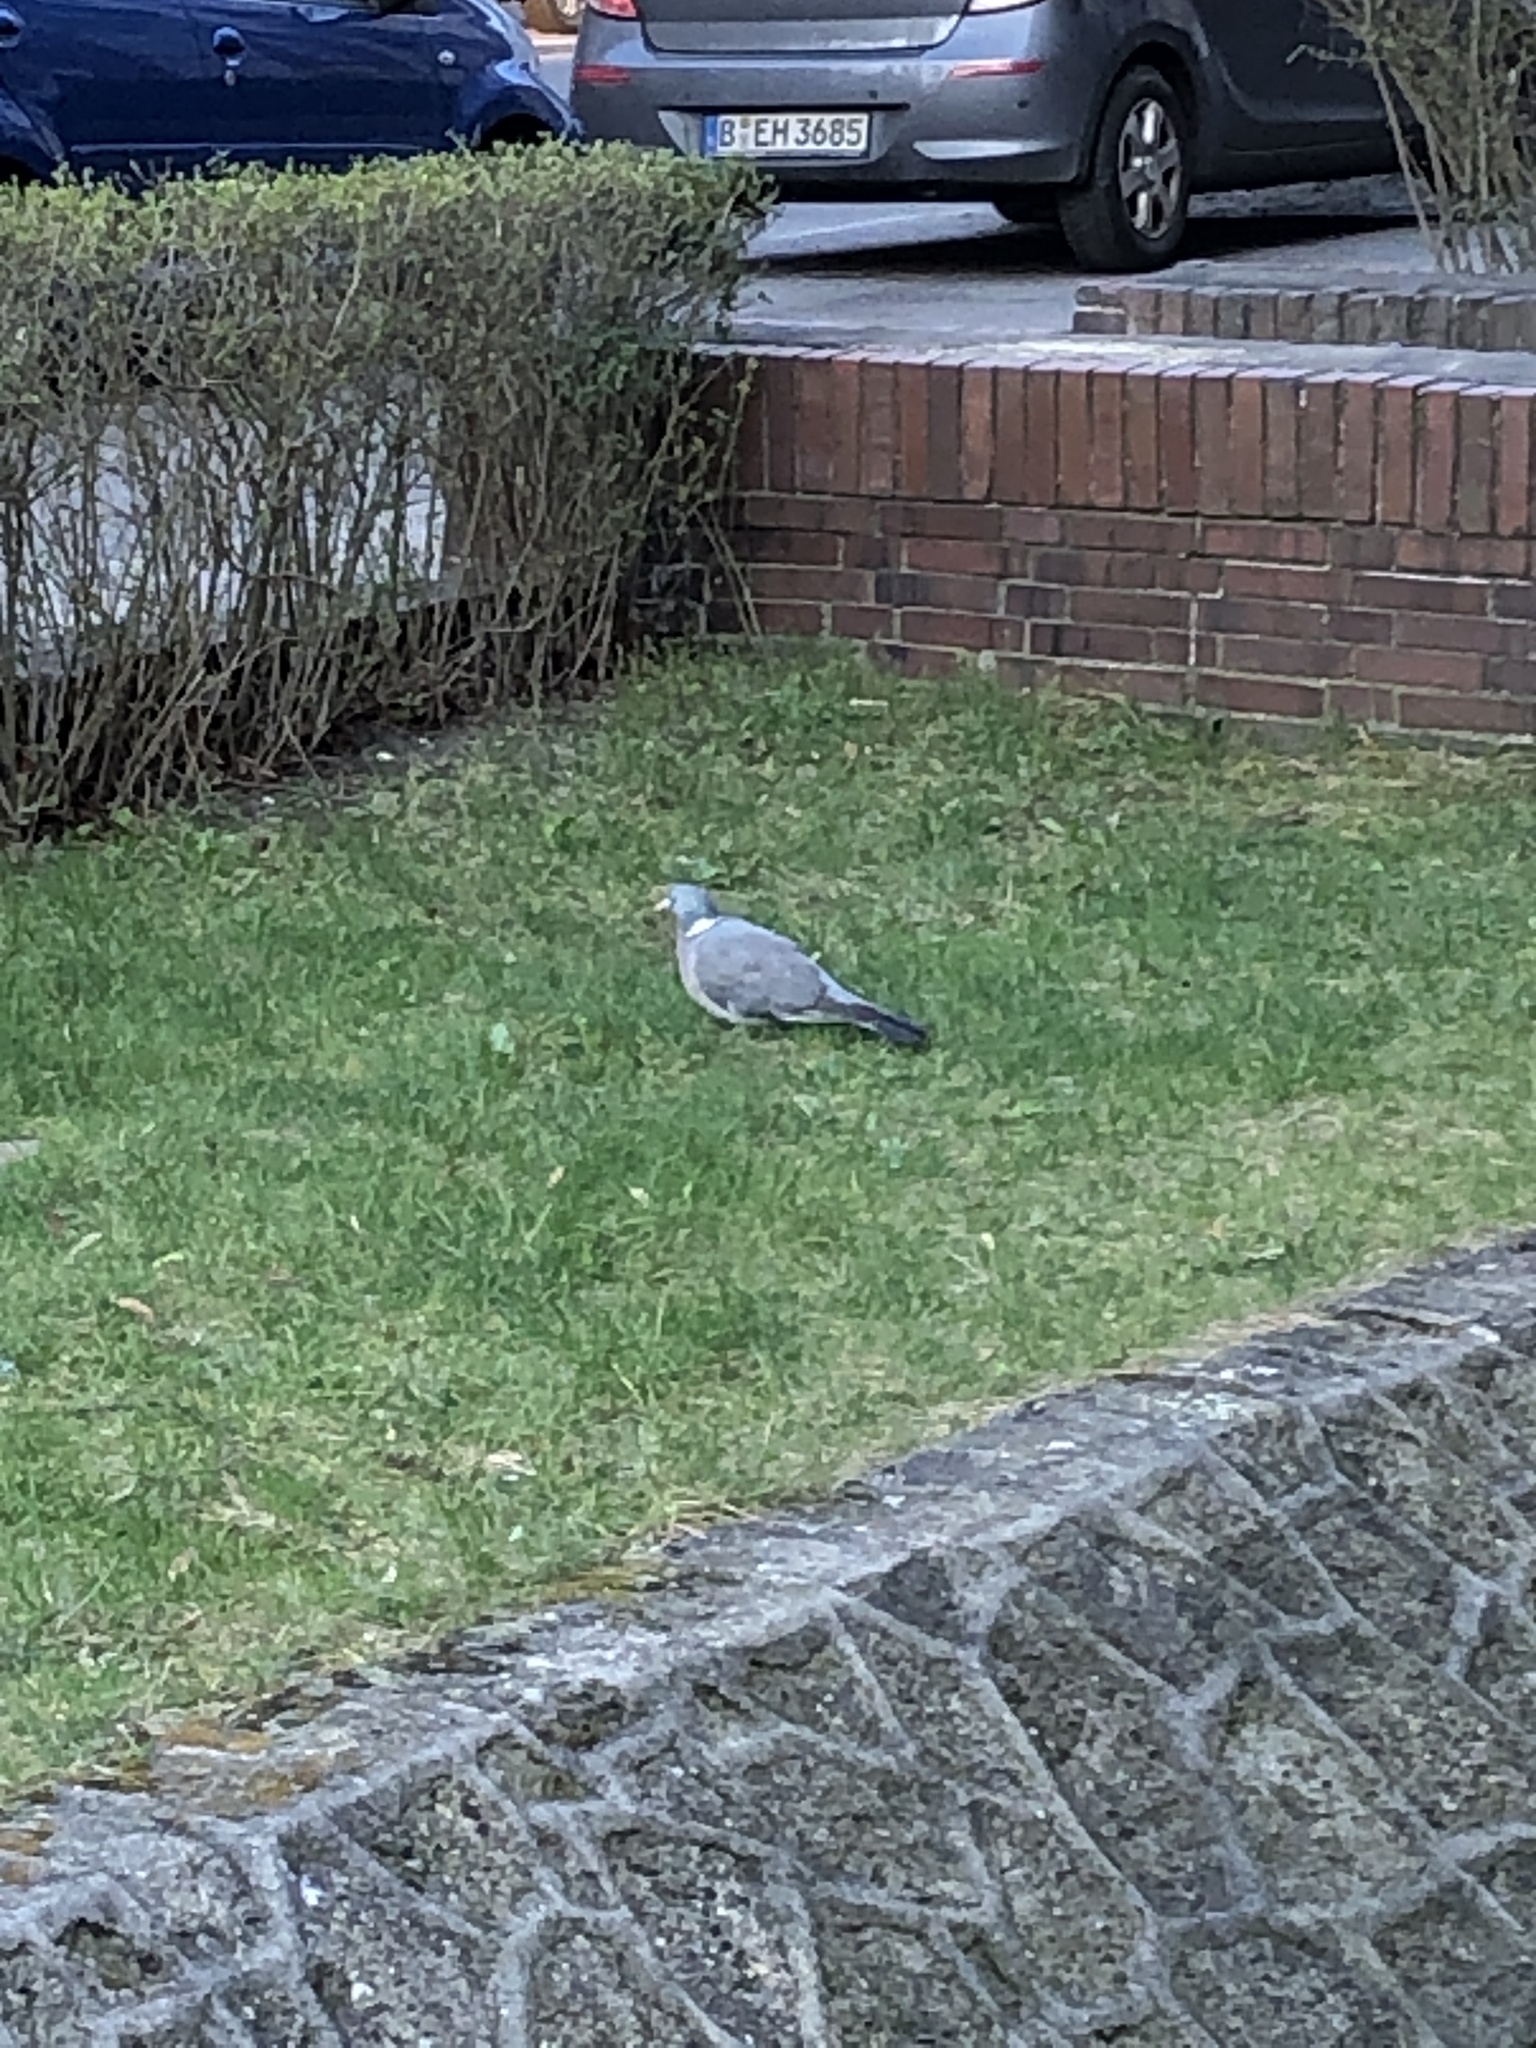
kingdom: Animalia
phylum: Chordata
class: Aves
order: Columbiformes
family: Columbidae
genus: Columba
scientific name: Columba palumbus
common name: Common wood pigeon
